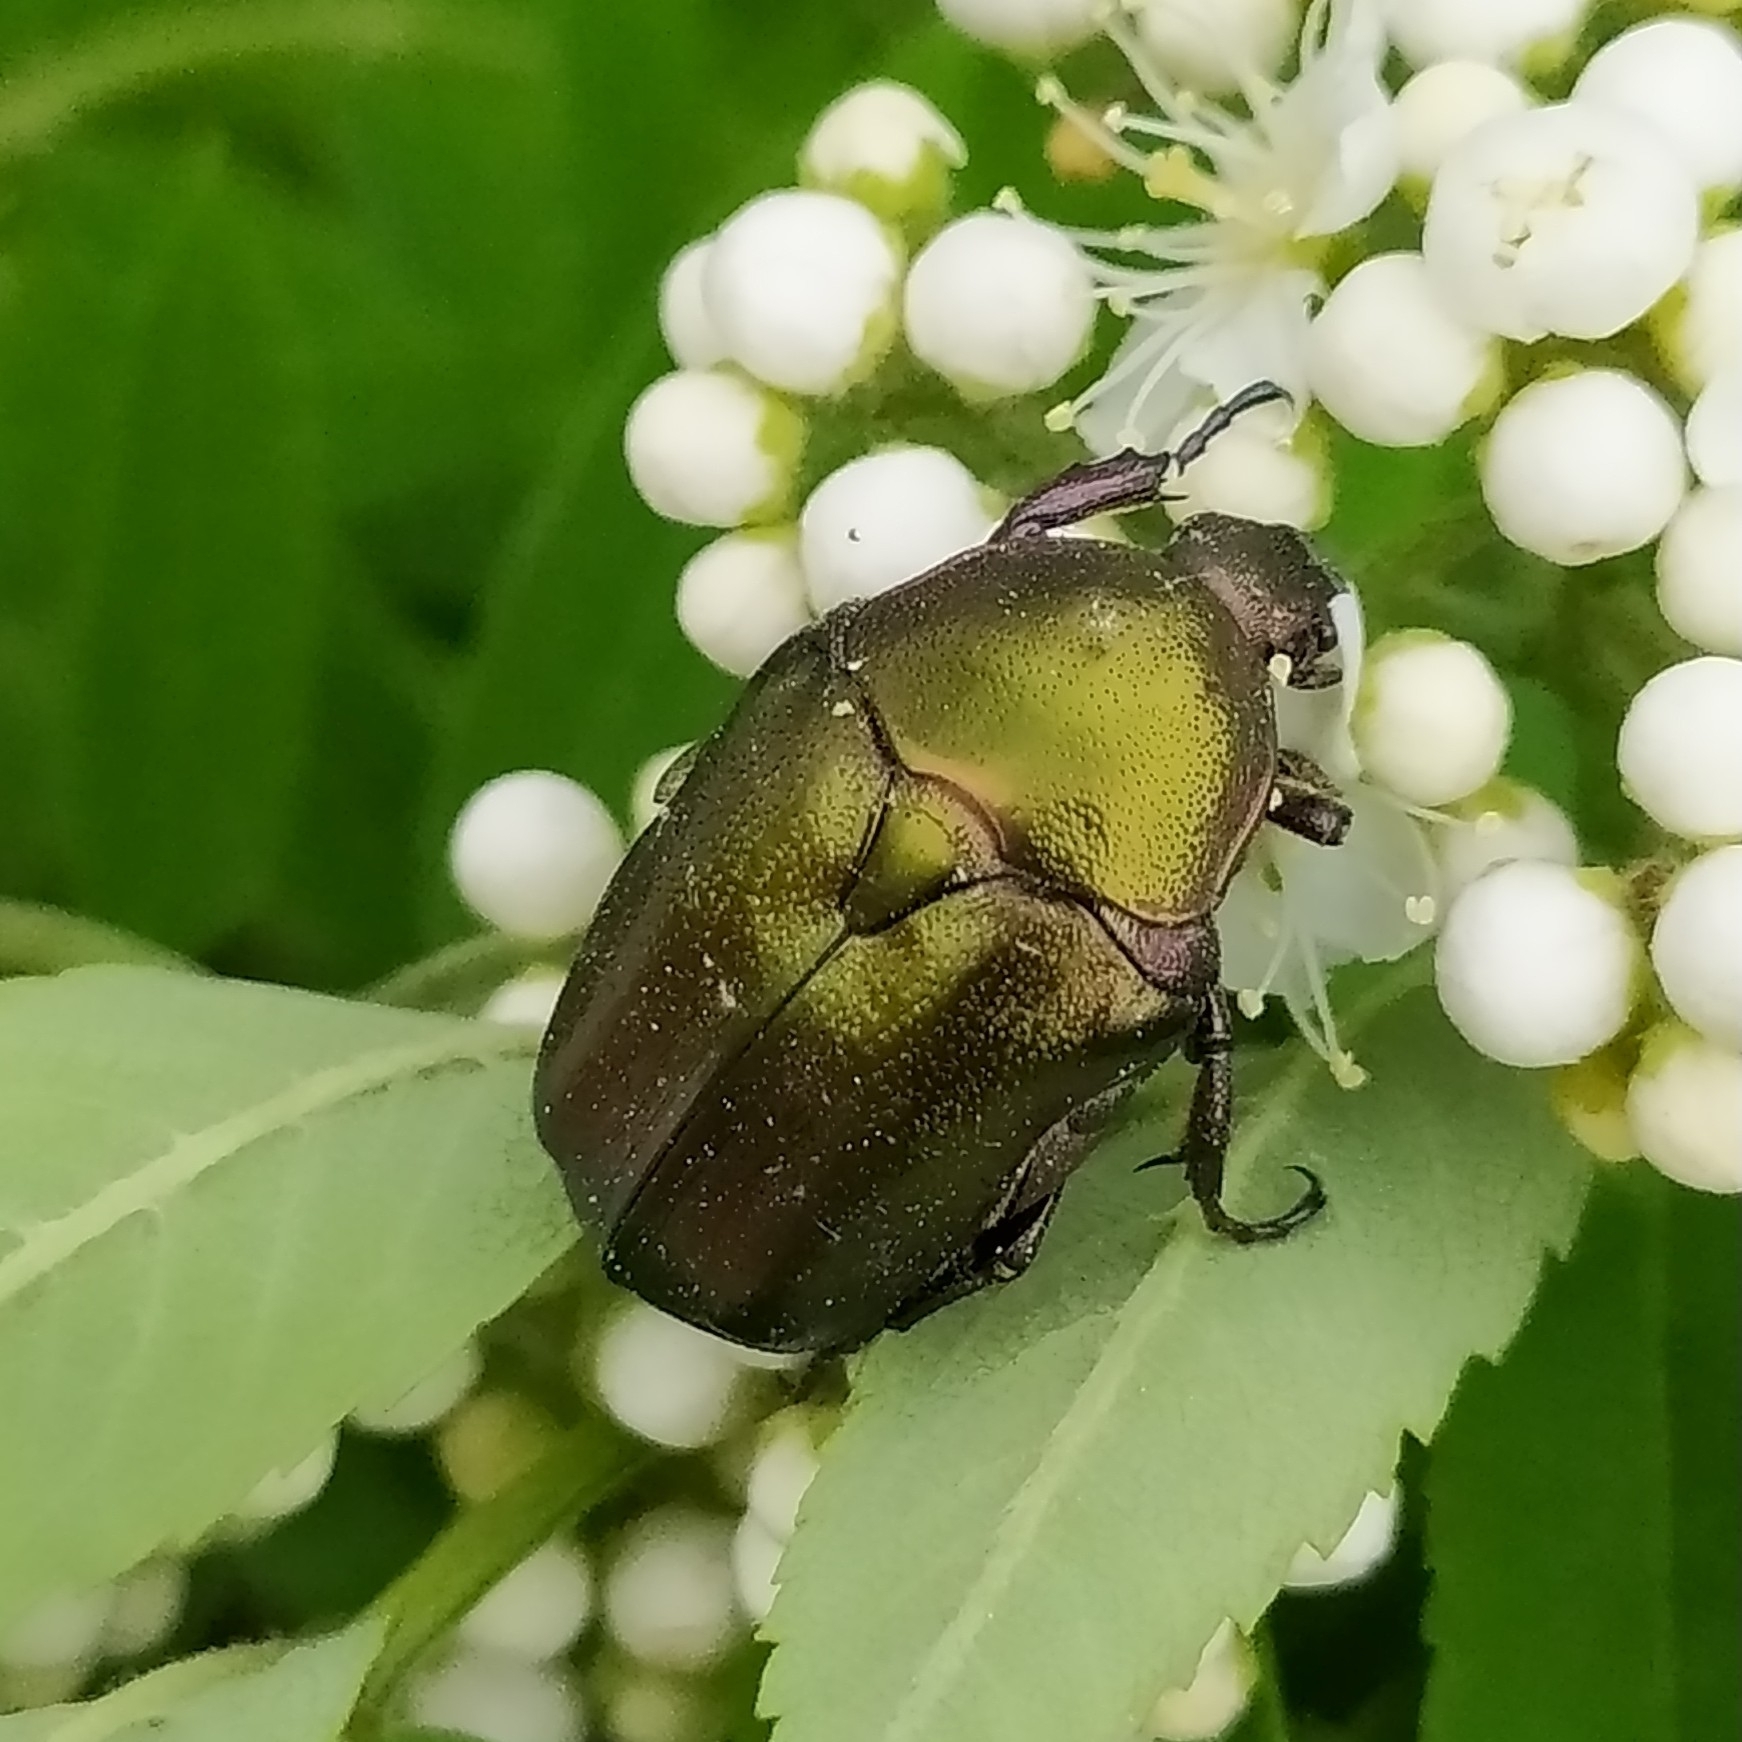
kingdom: Animalia
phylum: Arthropoda
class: Insecta
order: Coleoptera
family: Scarabaeidae
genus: Protaetia
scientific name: Protaetia cuprea
